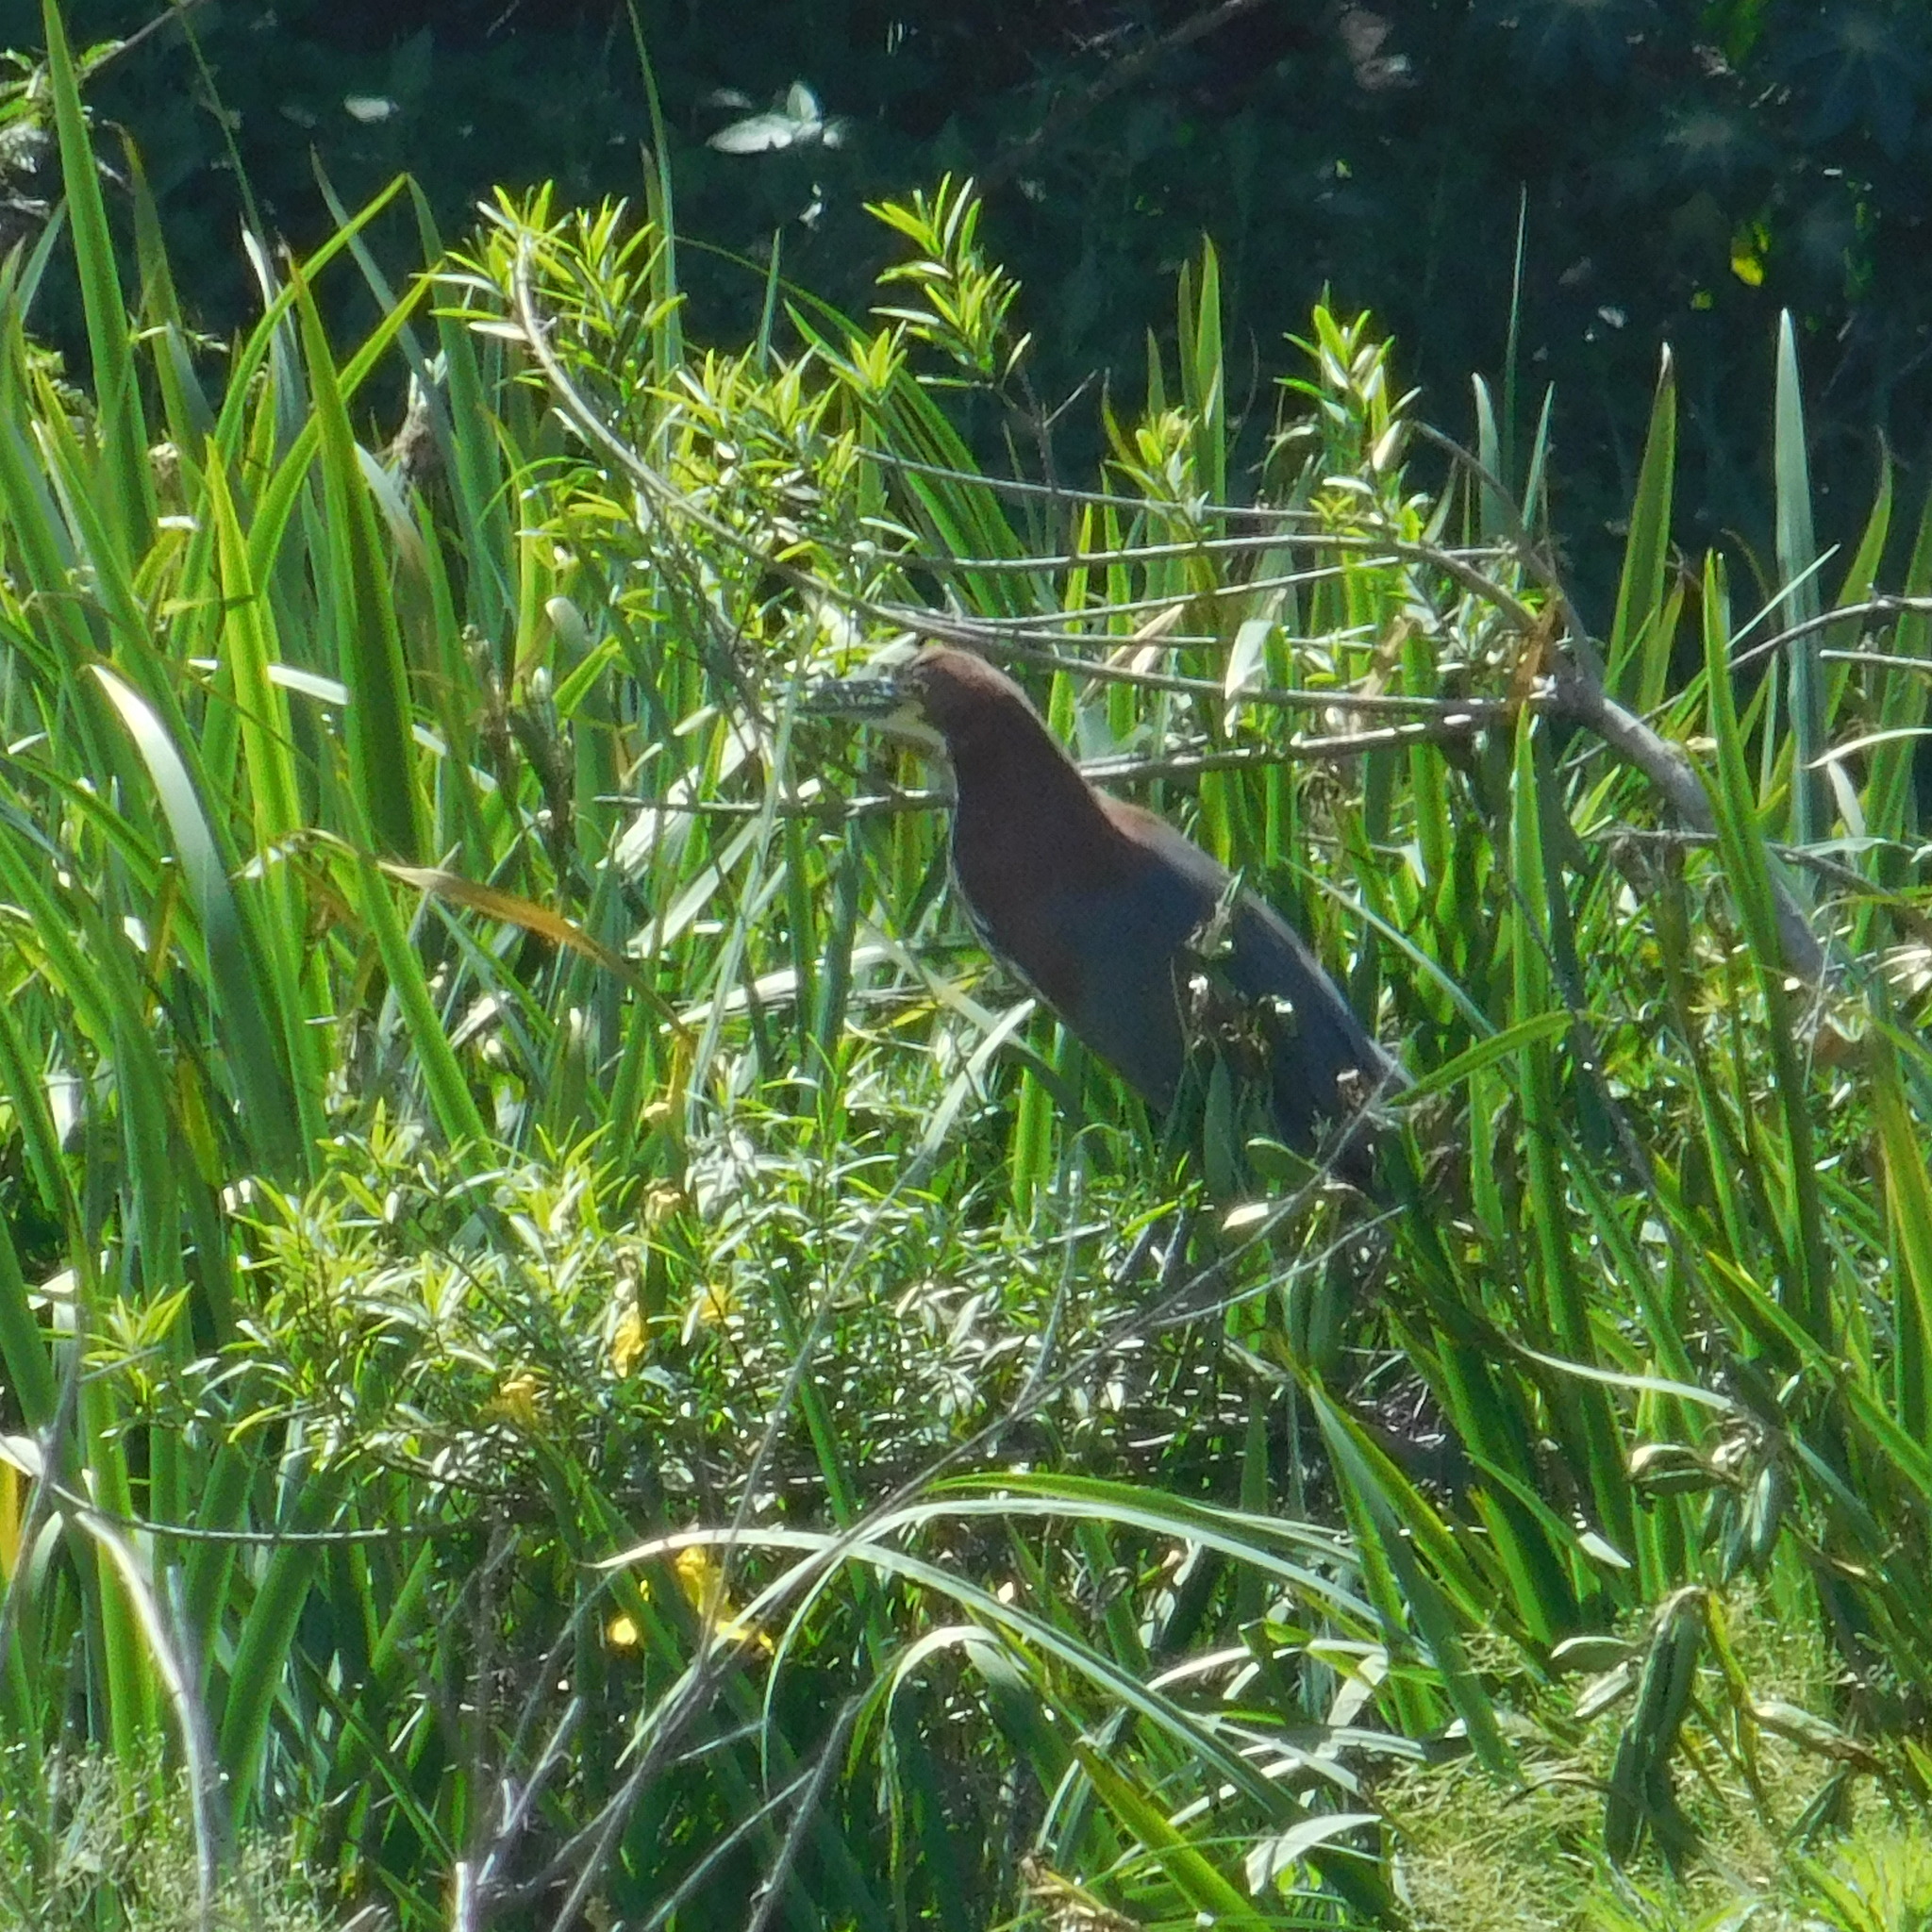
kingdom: Animalia
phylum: Chordata
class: Aves
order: Pelecaniformes
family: Ardeidae
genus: Tigrisoma
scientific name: Tigrisoma lineatum
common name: Rufescent tiger-heron
